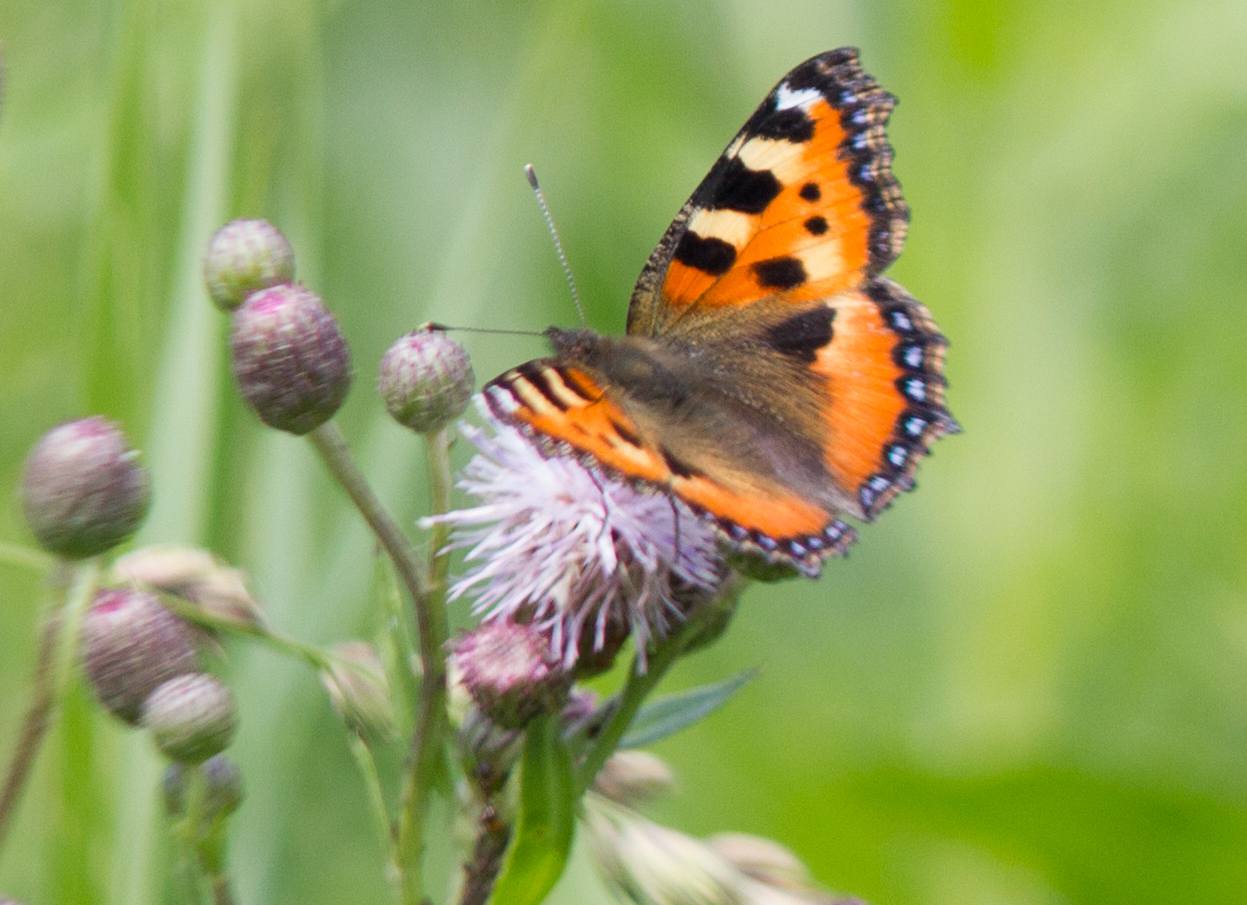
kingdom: Animalia
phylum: Arthropoda
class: Insecta
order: Lepidoptera
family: Nymphalidae
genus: Aglais
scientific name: Aglais urticae
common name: Small tortoiseshell
